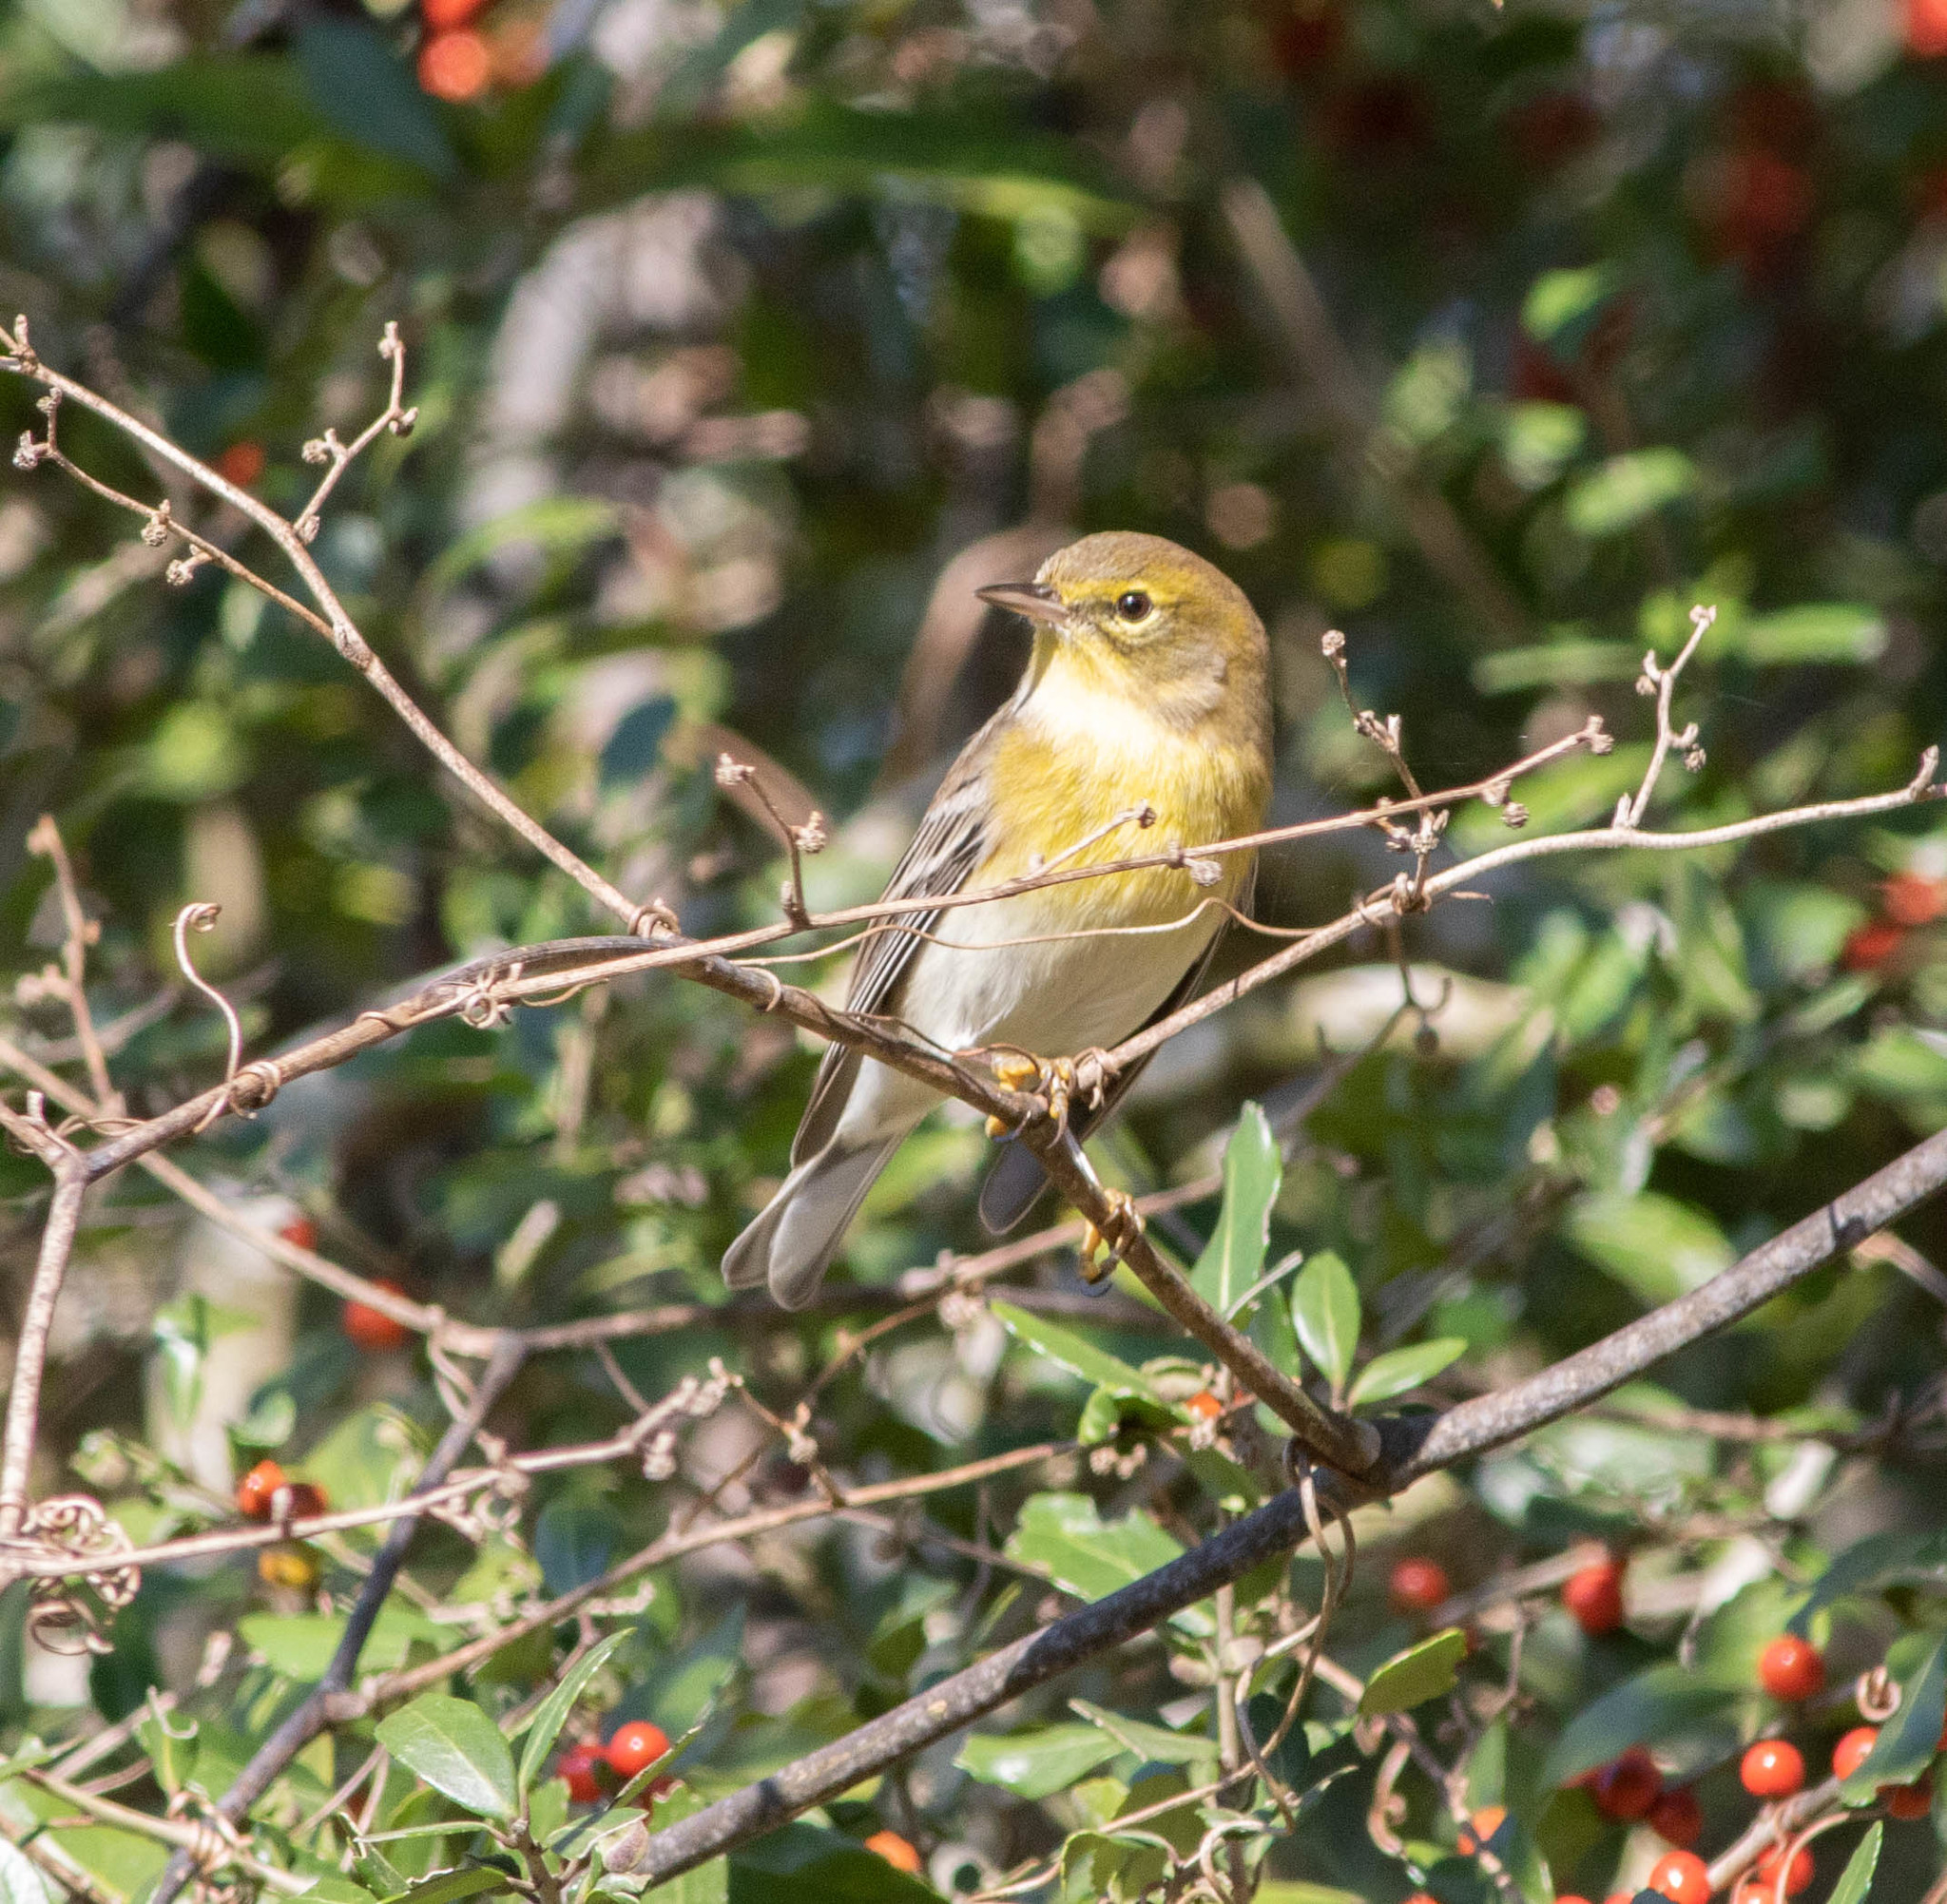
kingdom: Animalia
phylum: Chordata
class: Aves
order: Passeriformes
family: Parulidae
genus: Setophaga
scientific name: Setophaga pinus
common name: Pine warbler
